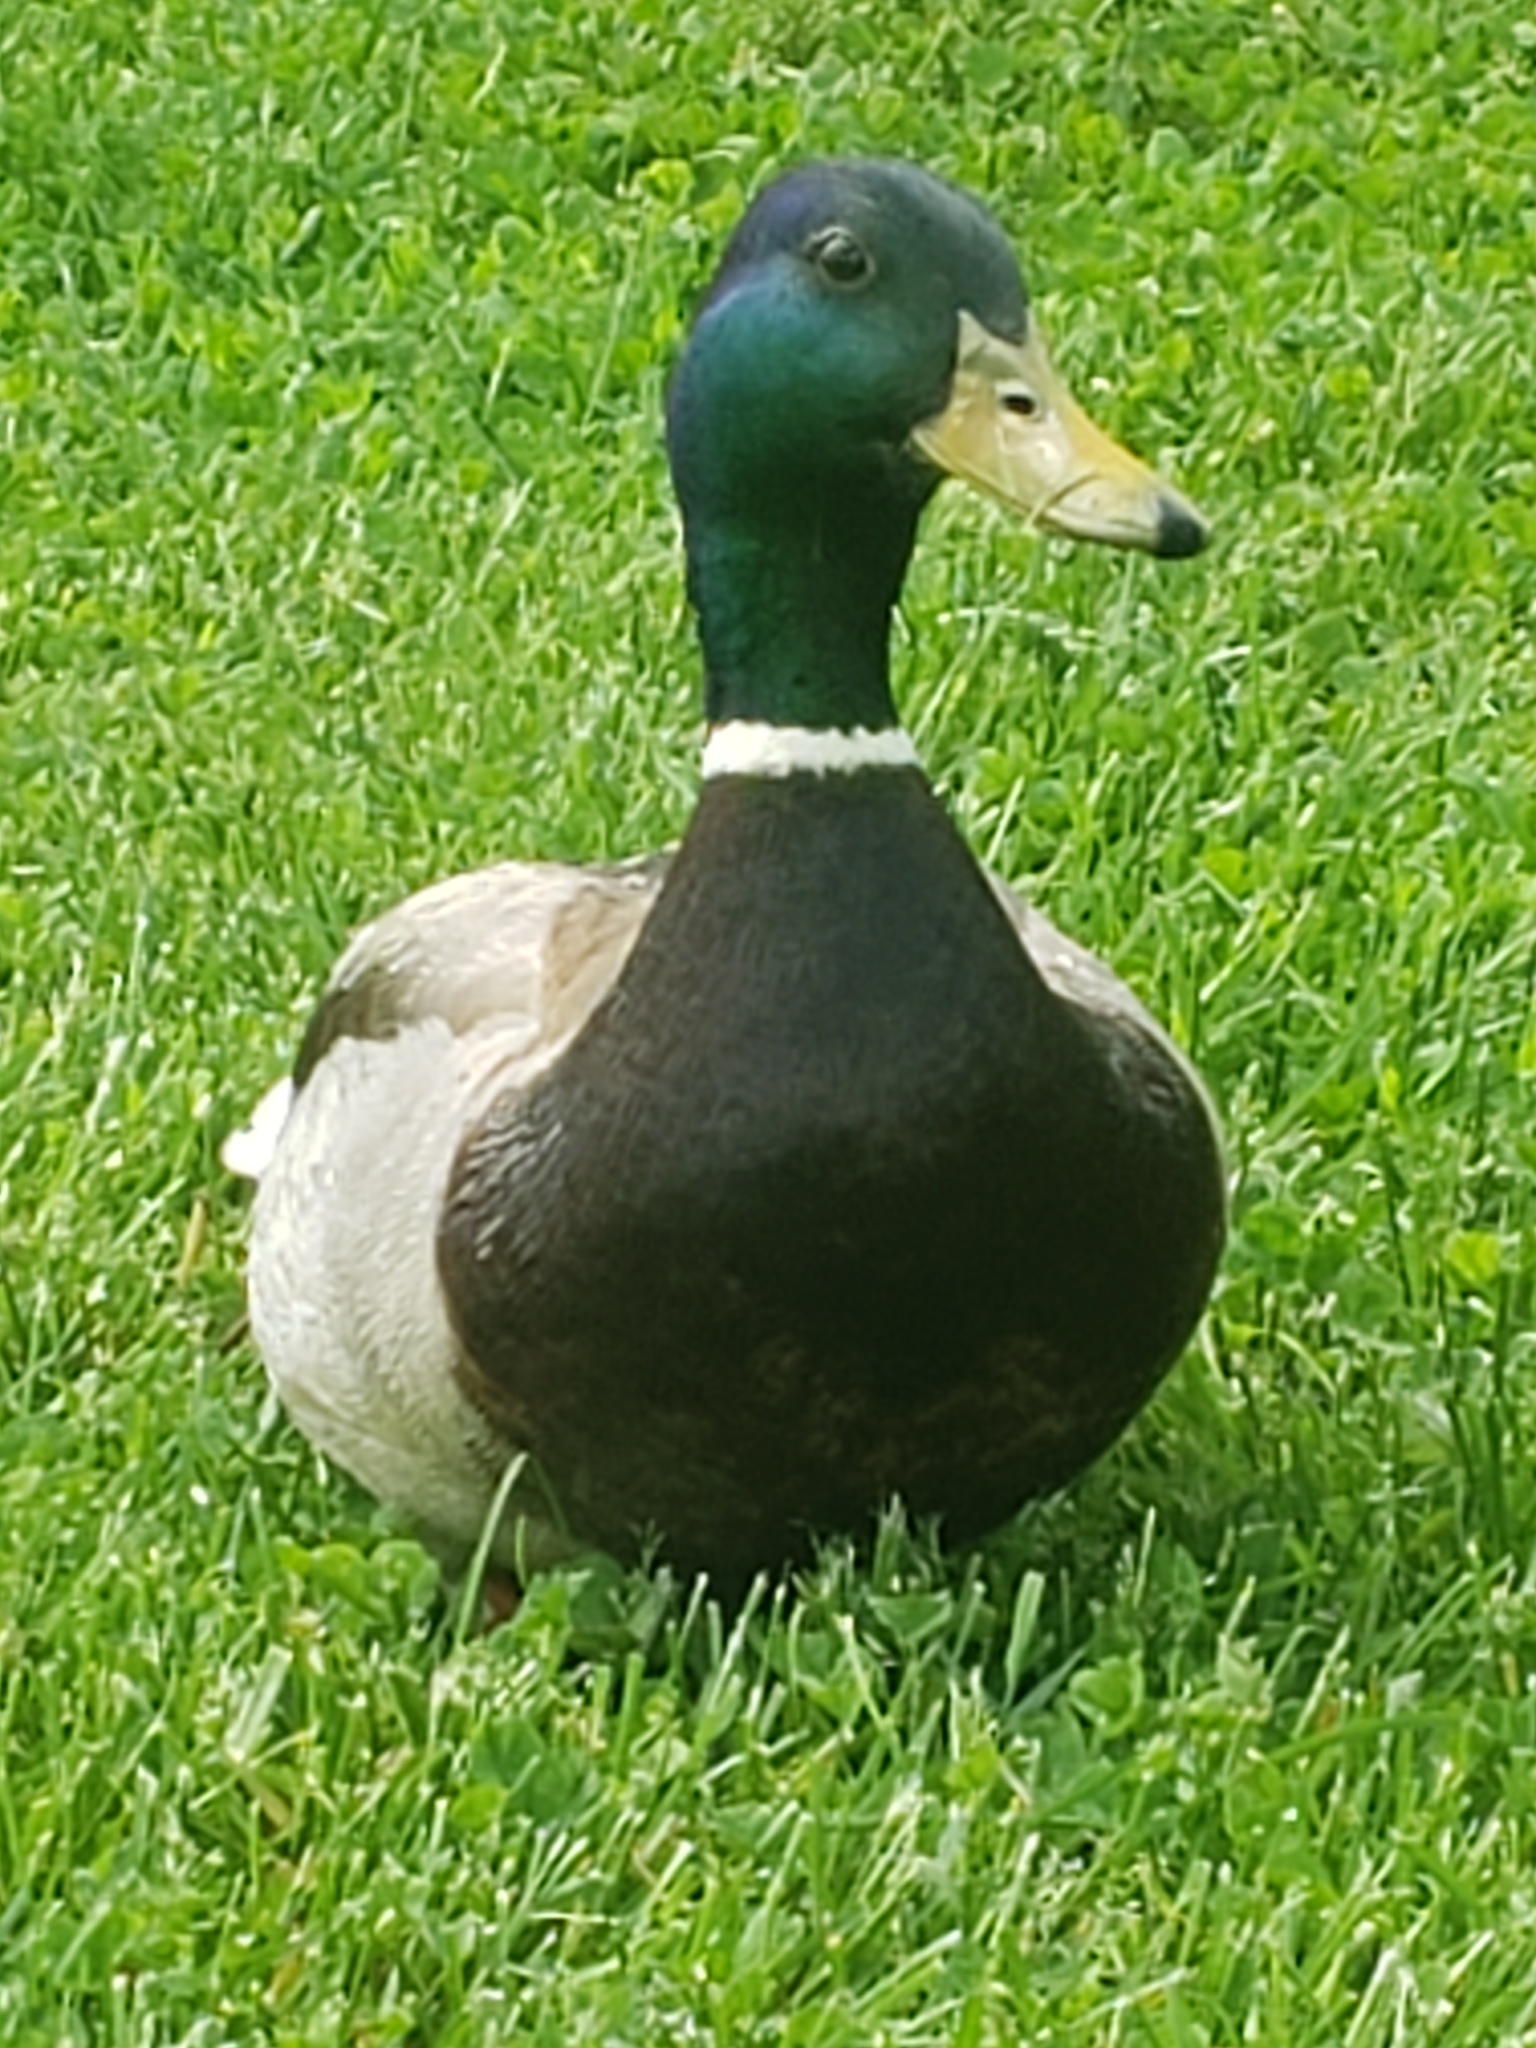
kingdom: Animalia
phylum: Chordata
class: Aves
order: Anseriformes
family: Anatidae
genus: Anas
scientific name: Anas platyrhynchos
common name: Mallard
